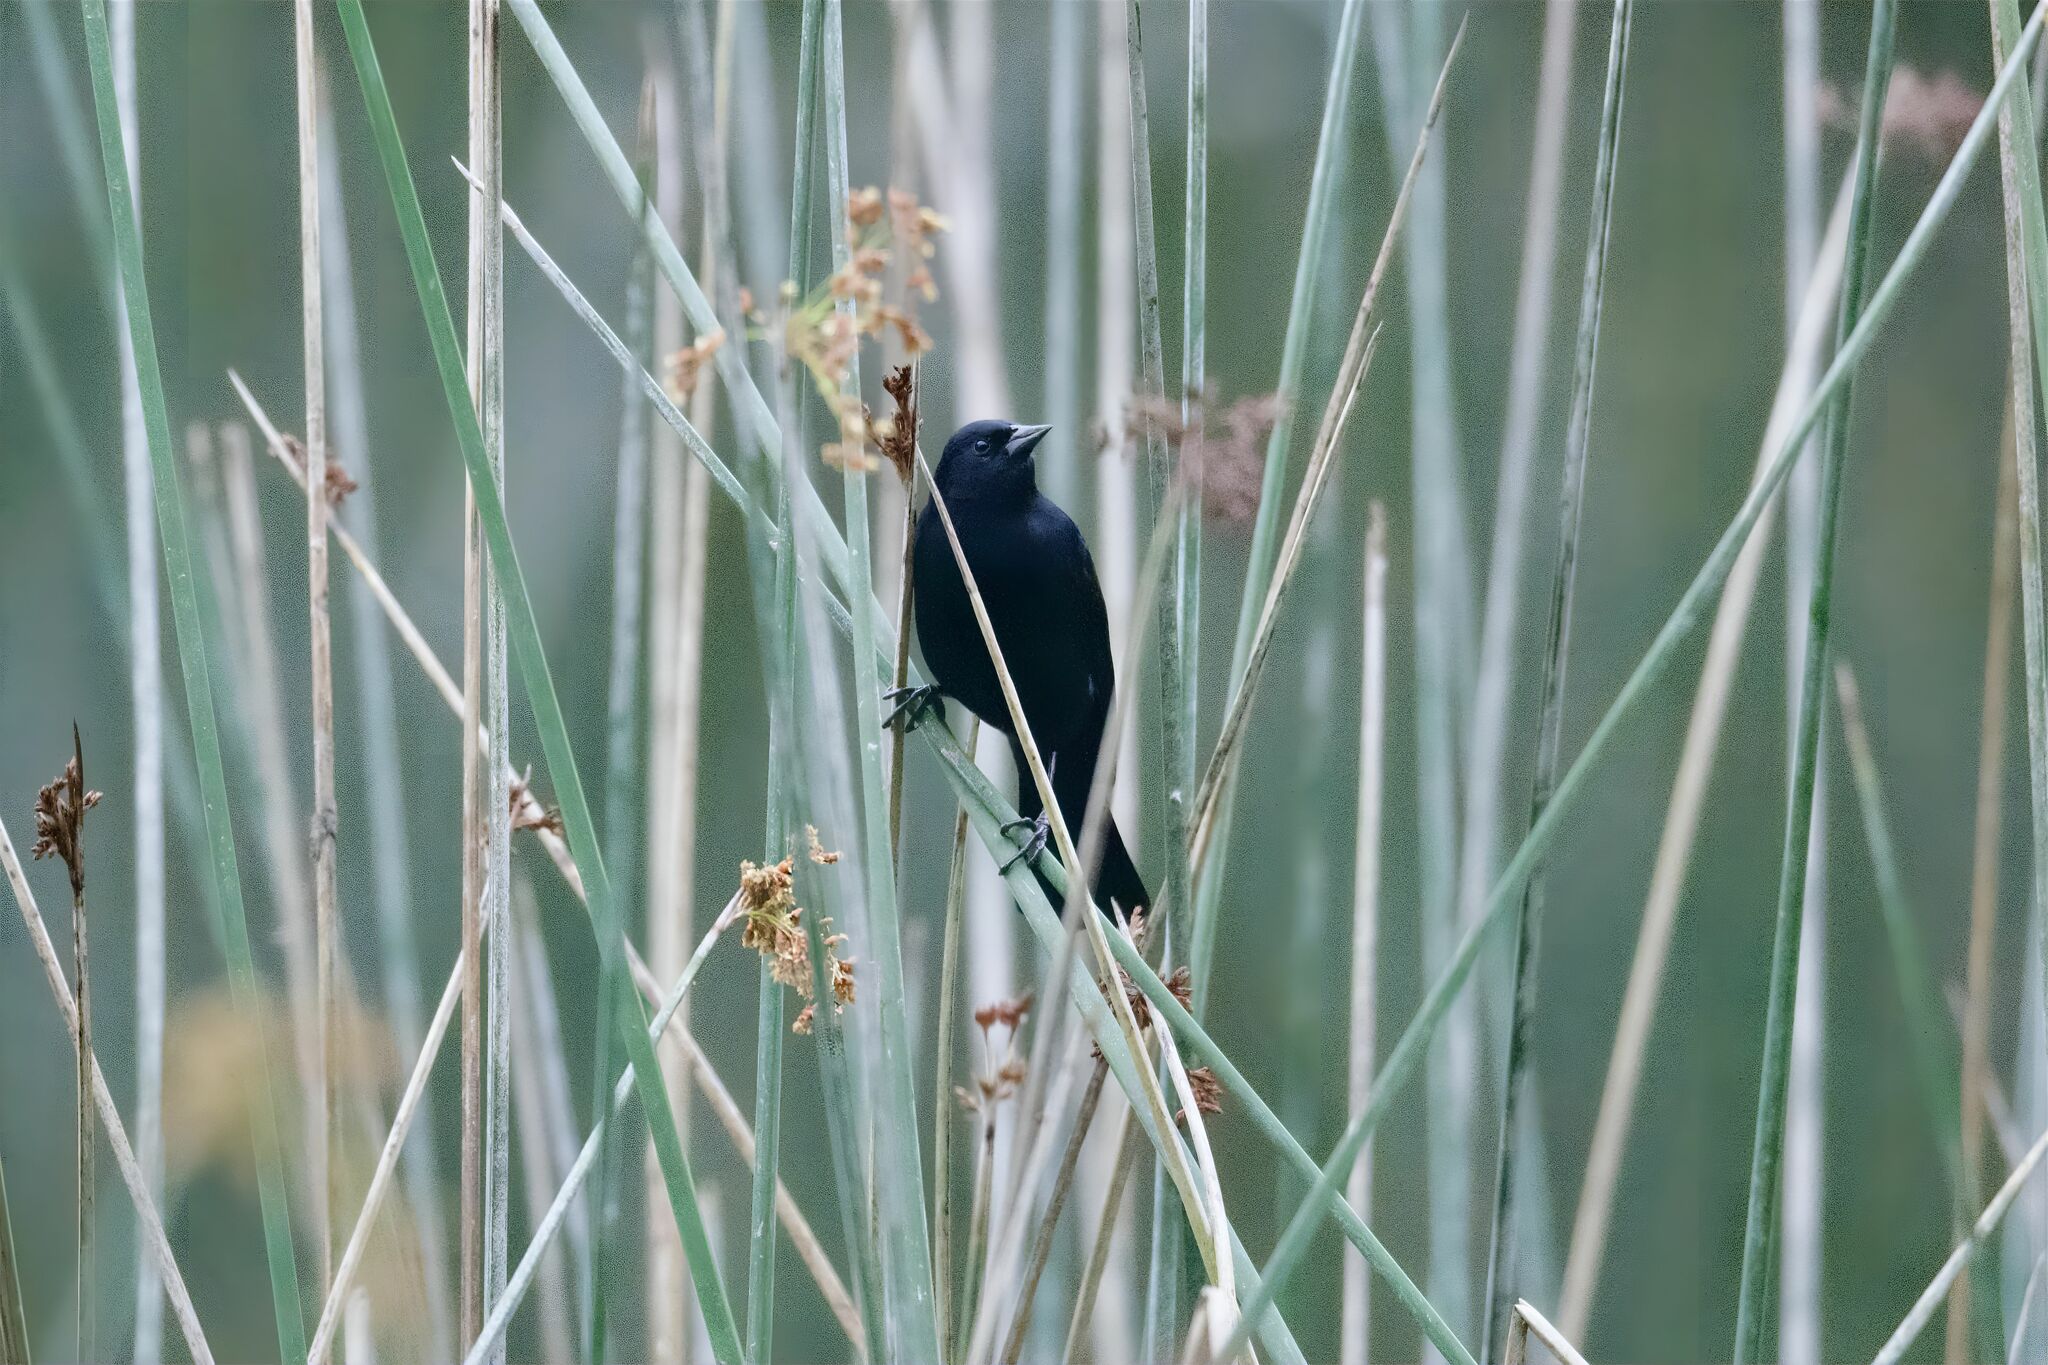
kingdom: Animalia
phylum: Chordata
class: Aves
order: Passeriformes
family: Icteridae
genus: Agelaius
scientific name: Agelaius phoeniceus
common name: Red-winged blackbird
